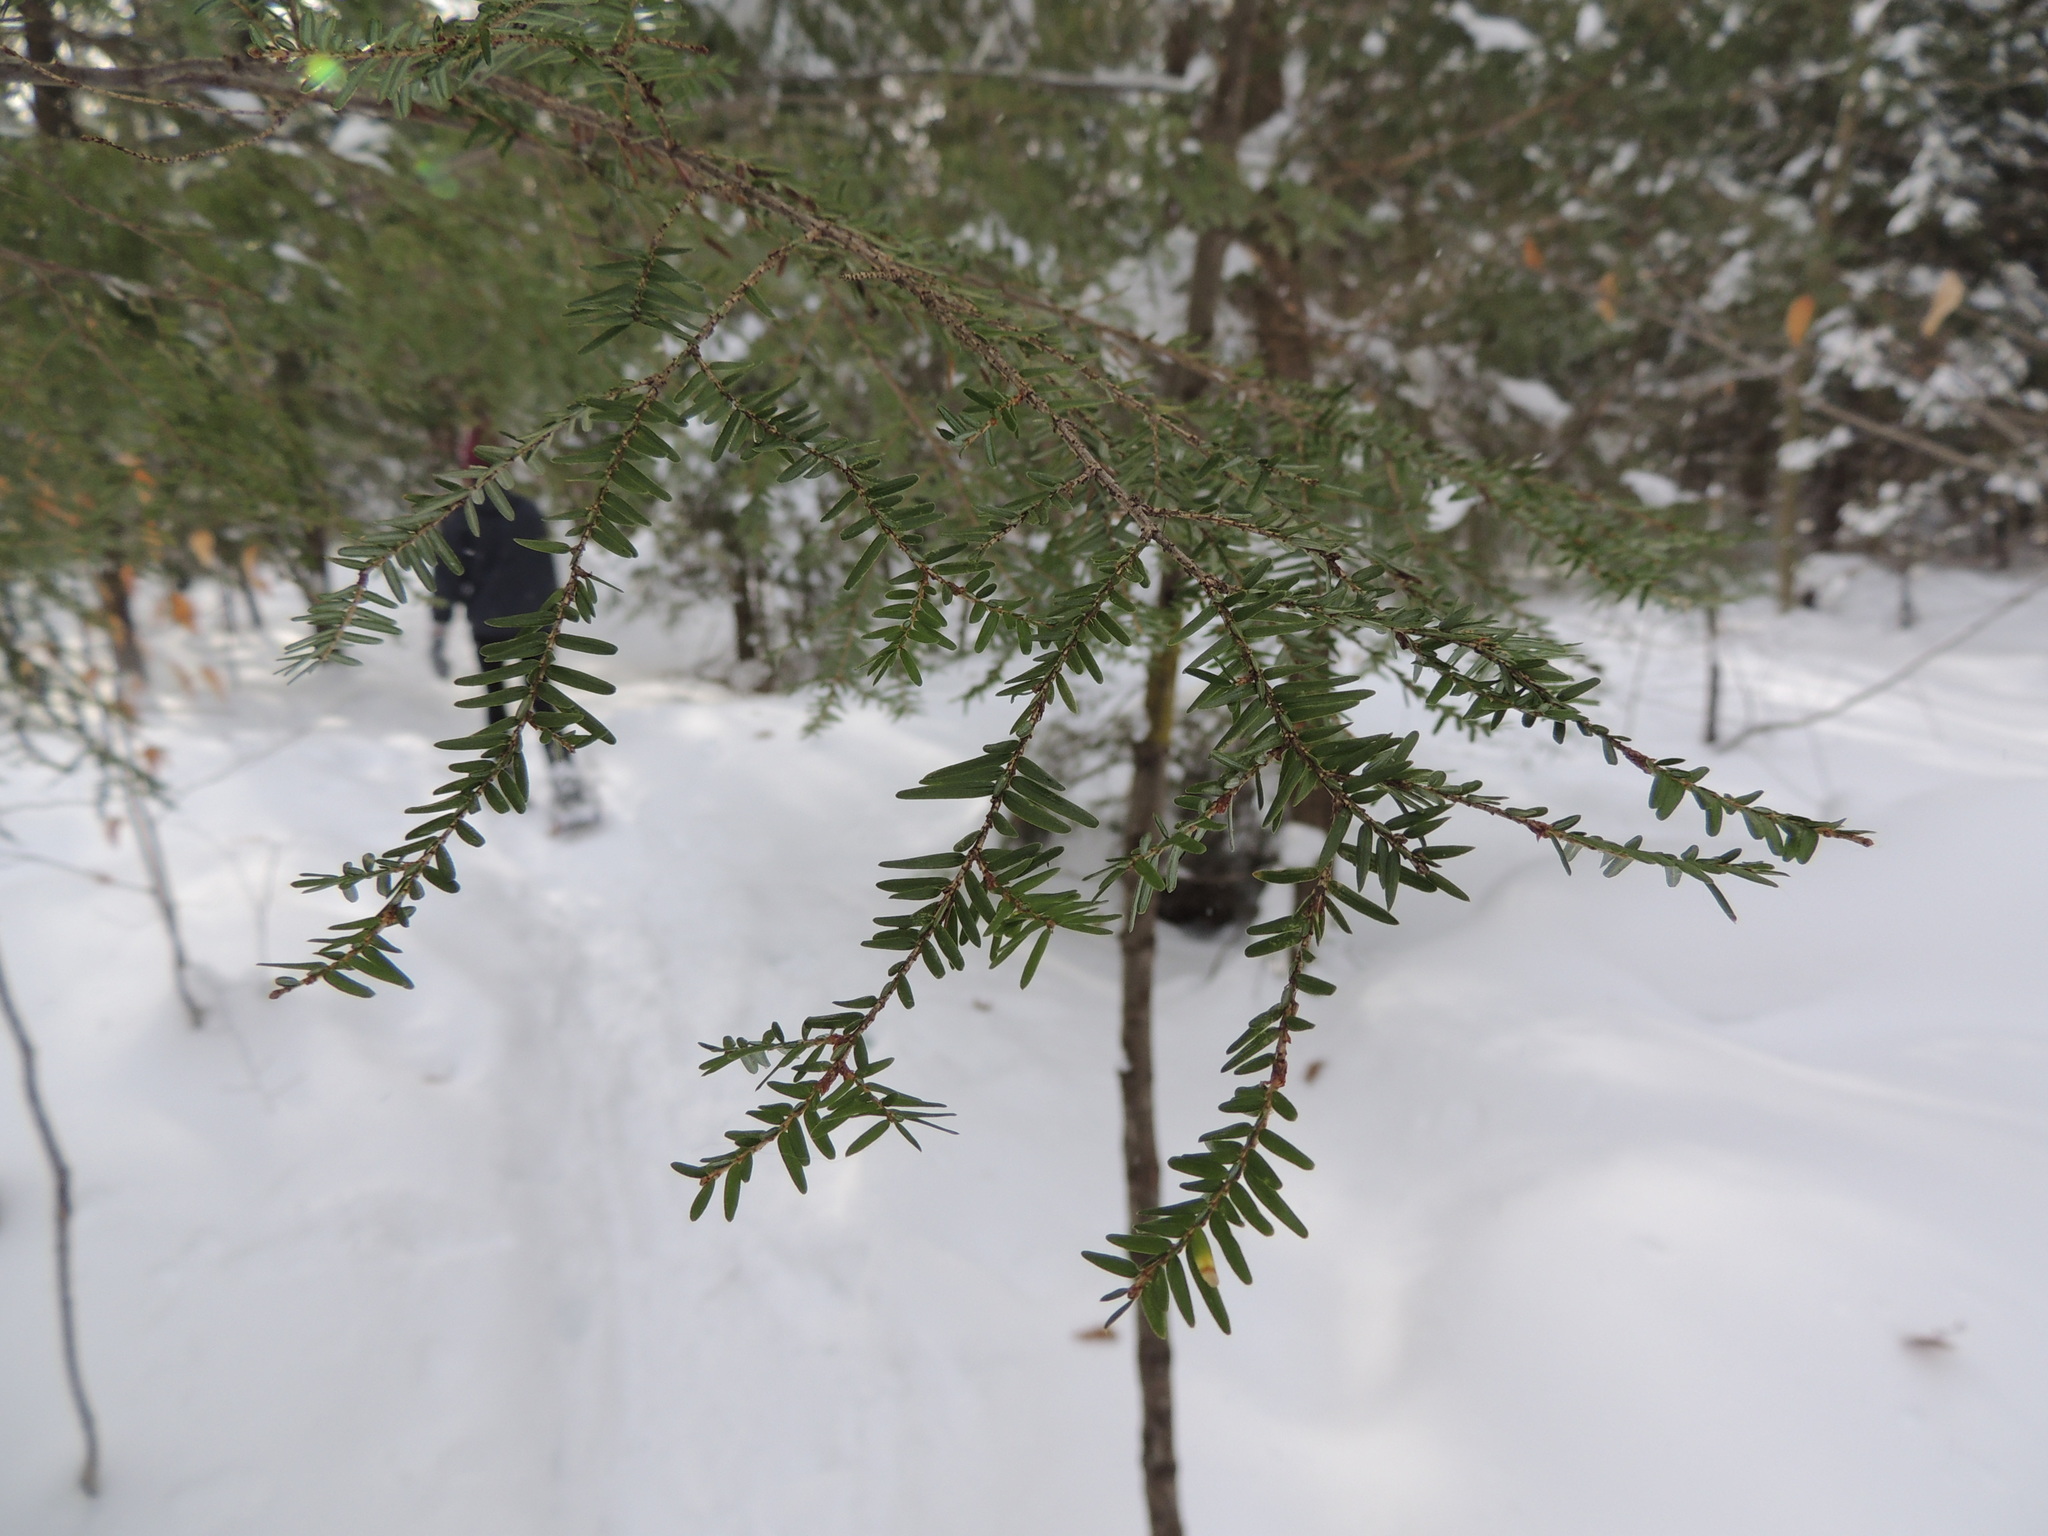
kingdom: Plantae
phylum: Tracheophyta
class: Pinopsida
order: Pinales
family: Pinaceae
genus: Tsuga
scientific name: Tsuga canadensis
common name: Eastern hemlock
